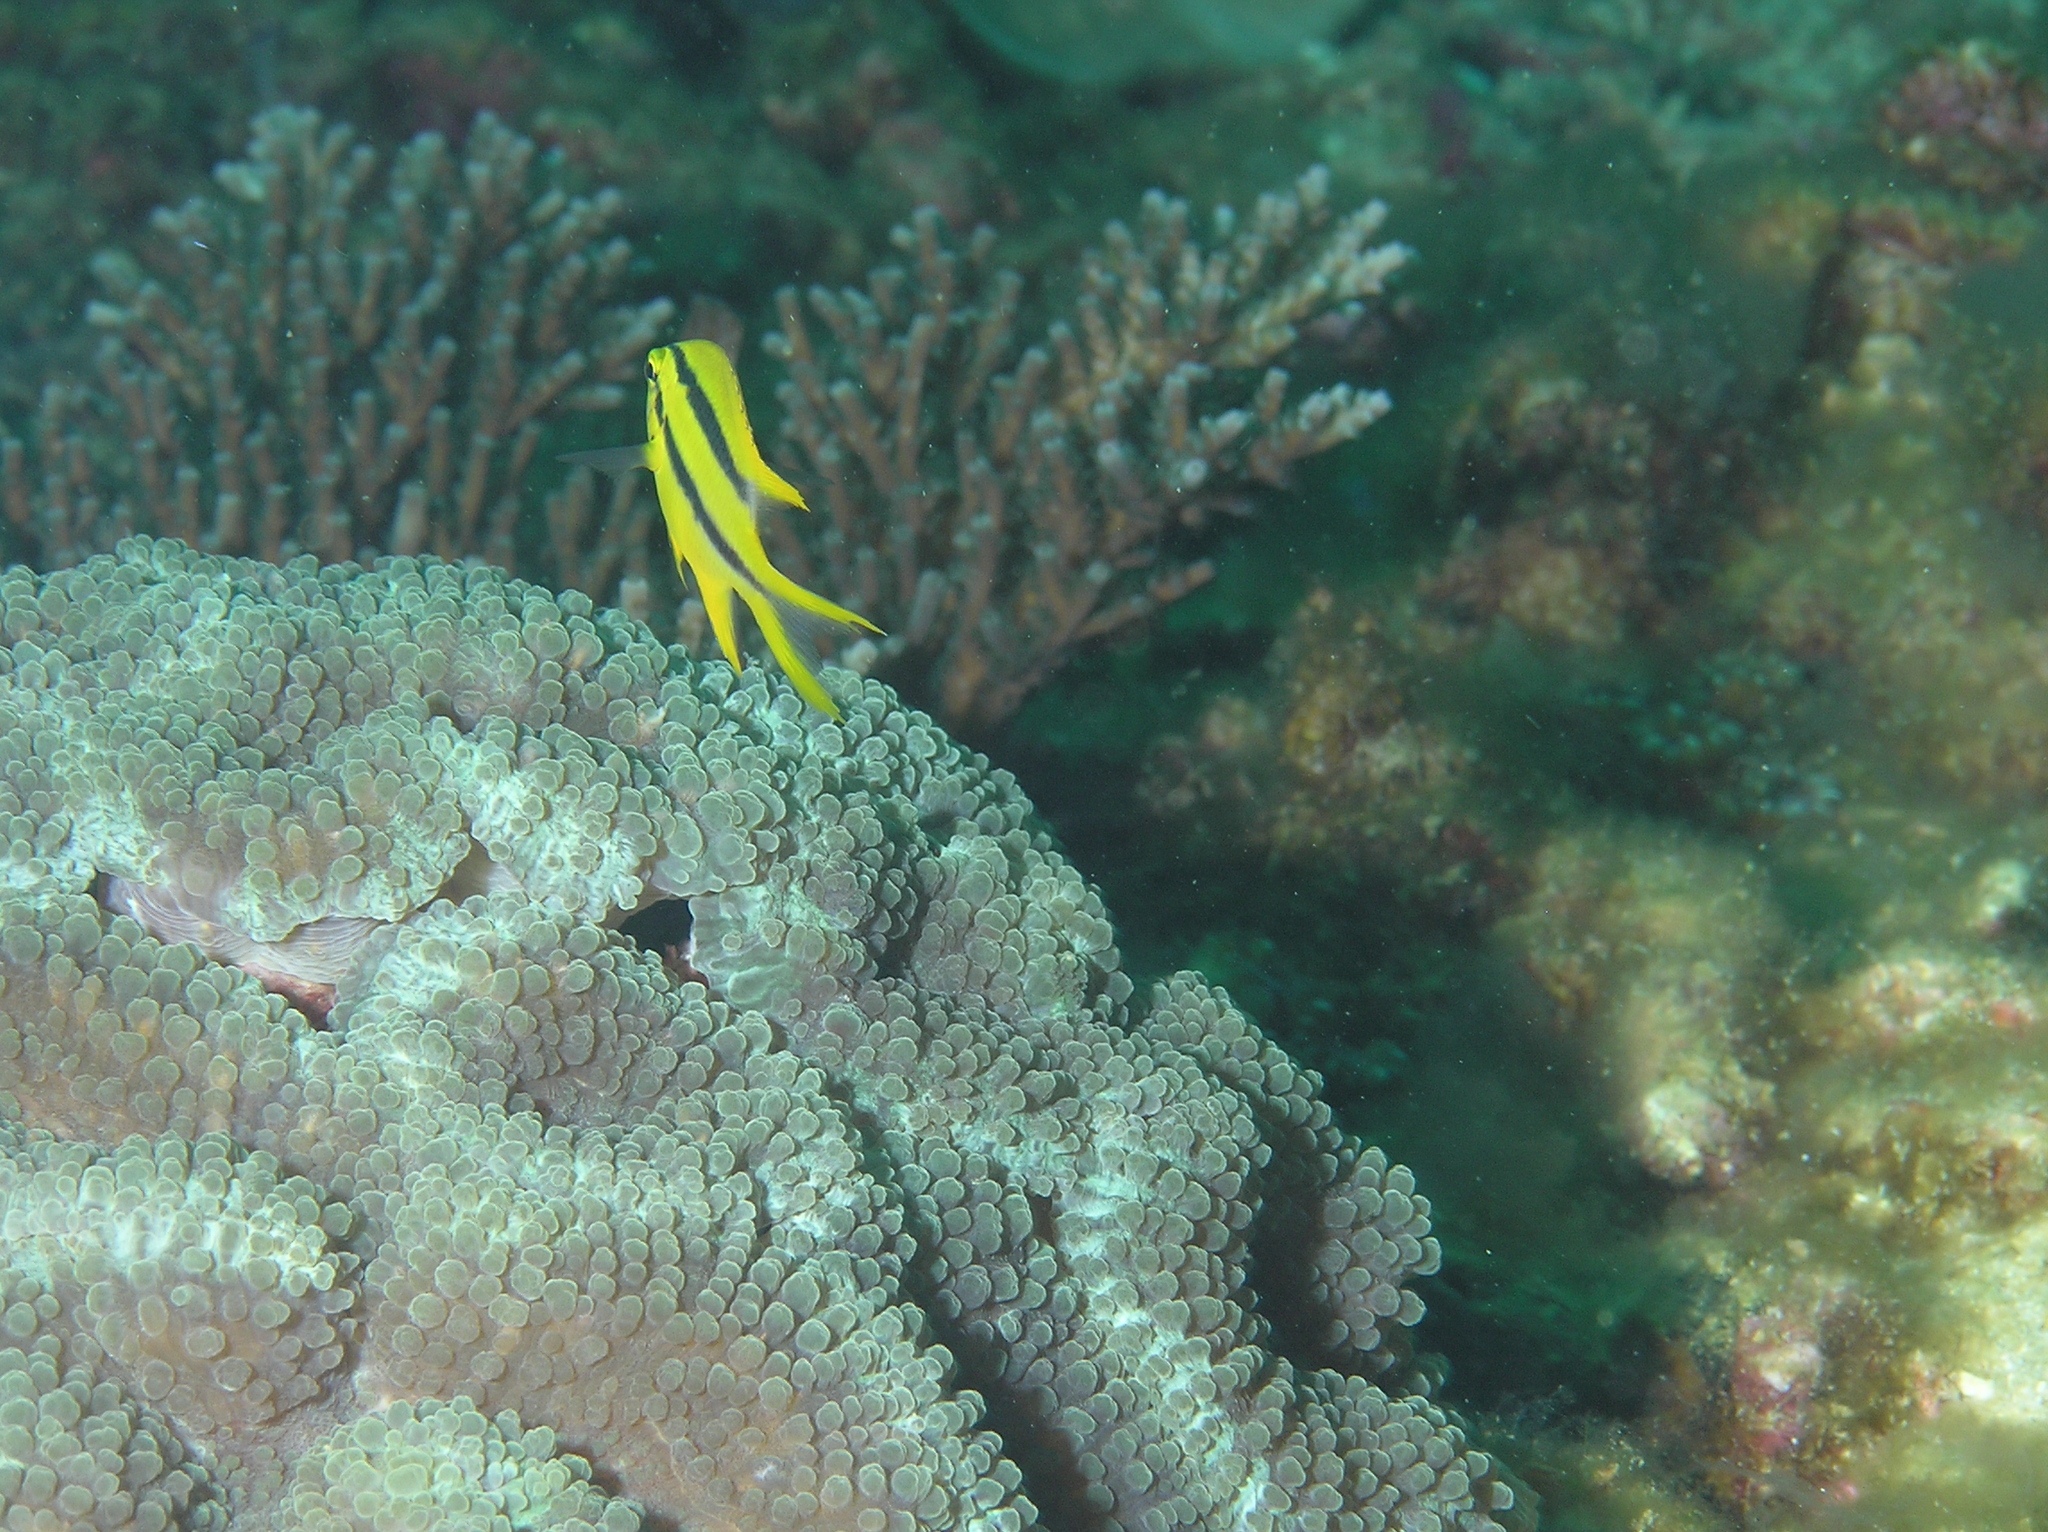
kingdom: Animalia
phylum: Chordata
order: Perciformes
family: Pomacentridae
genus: Neoglyphidodon
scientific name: Neoglyphidodon nigroris
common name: Behn's damsel
